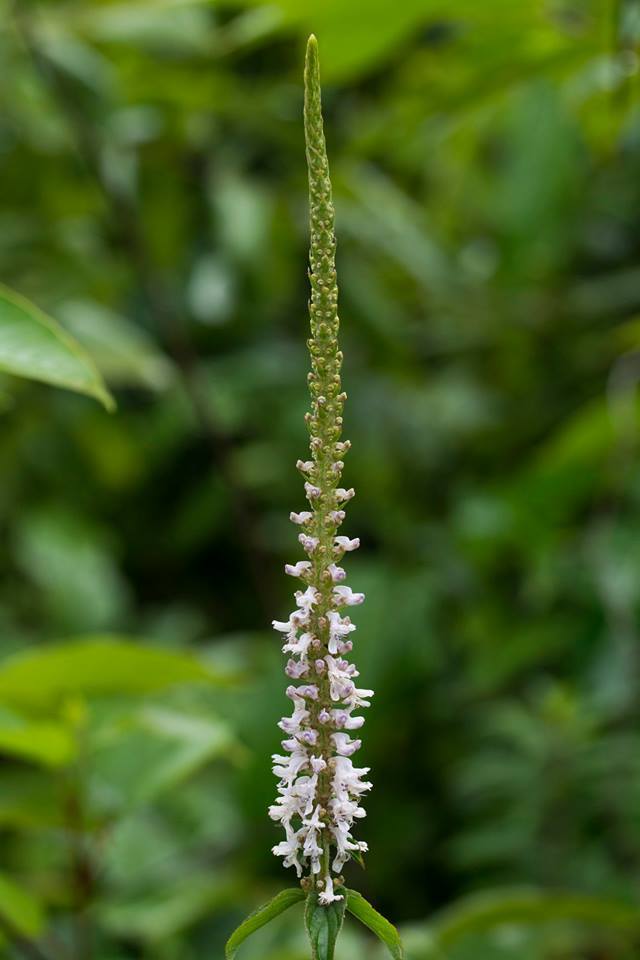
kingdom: Plantae
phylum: Tracheophyta
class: Magnoliopsida
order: Lamiales
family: Lamiaceae
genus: Coleus
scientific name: Coleus adenanthus
